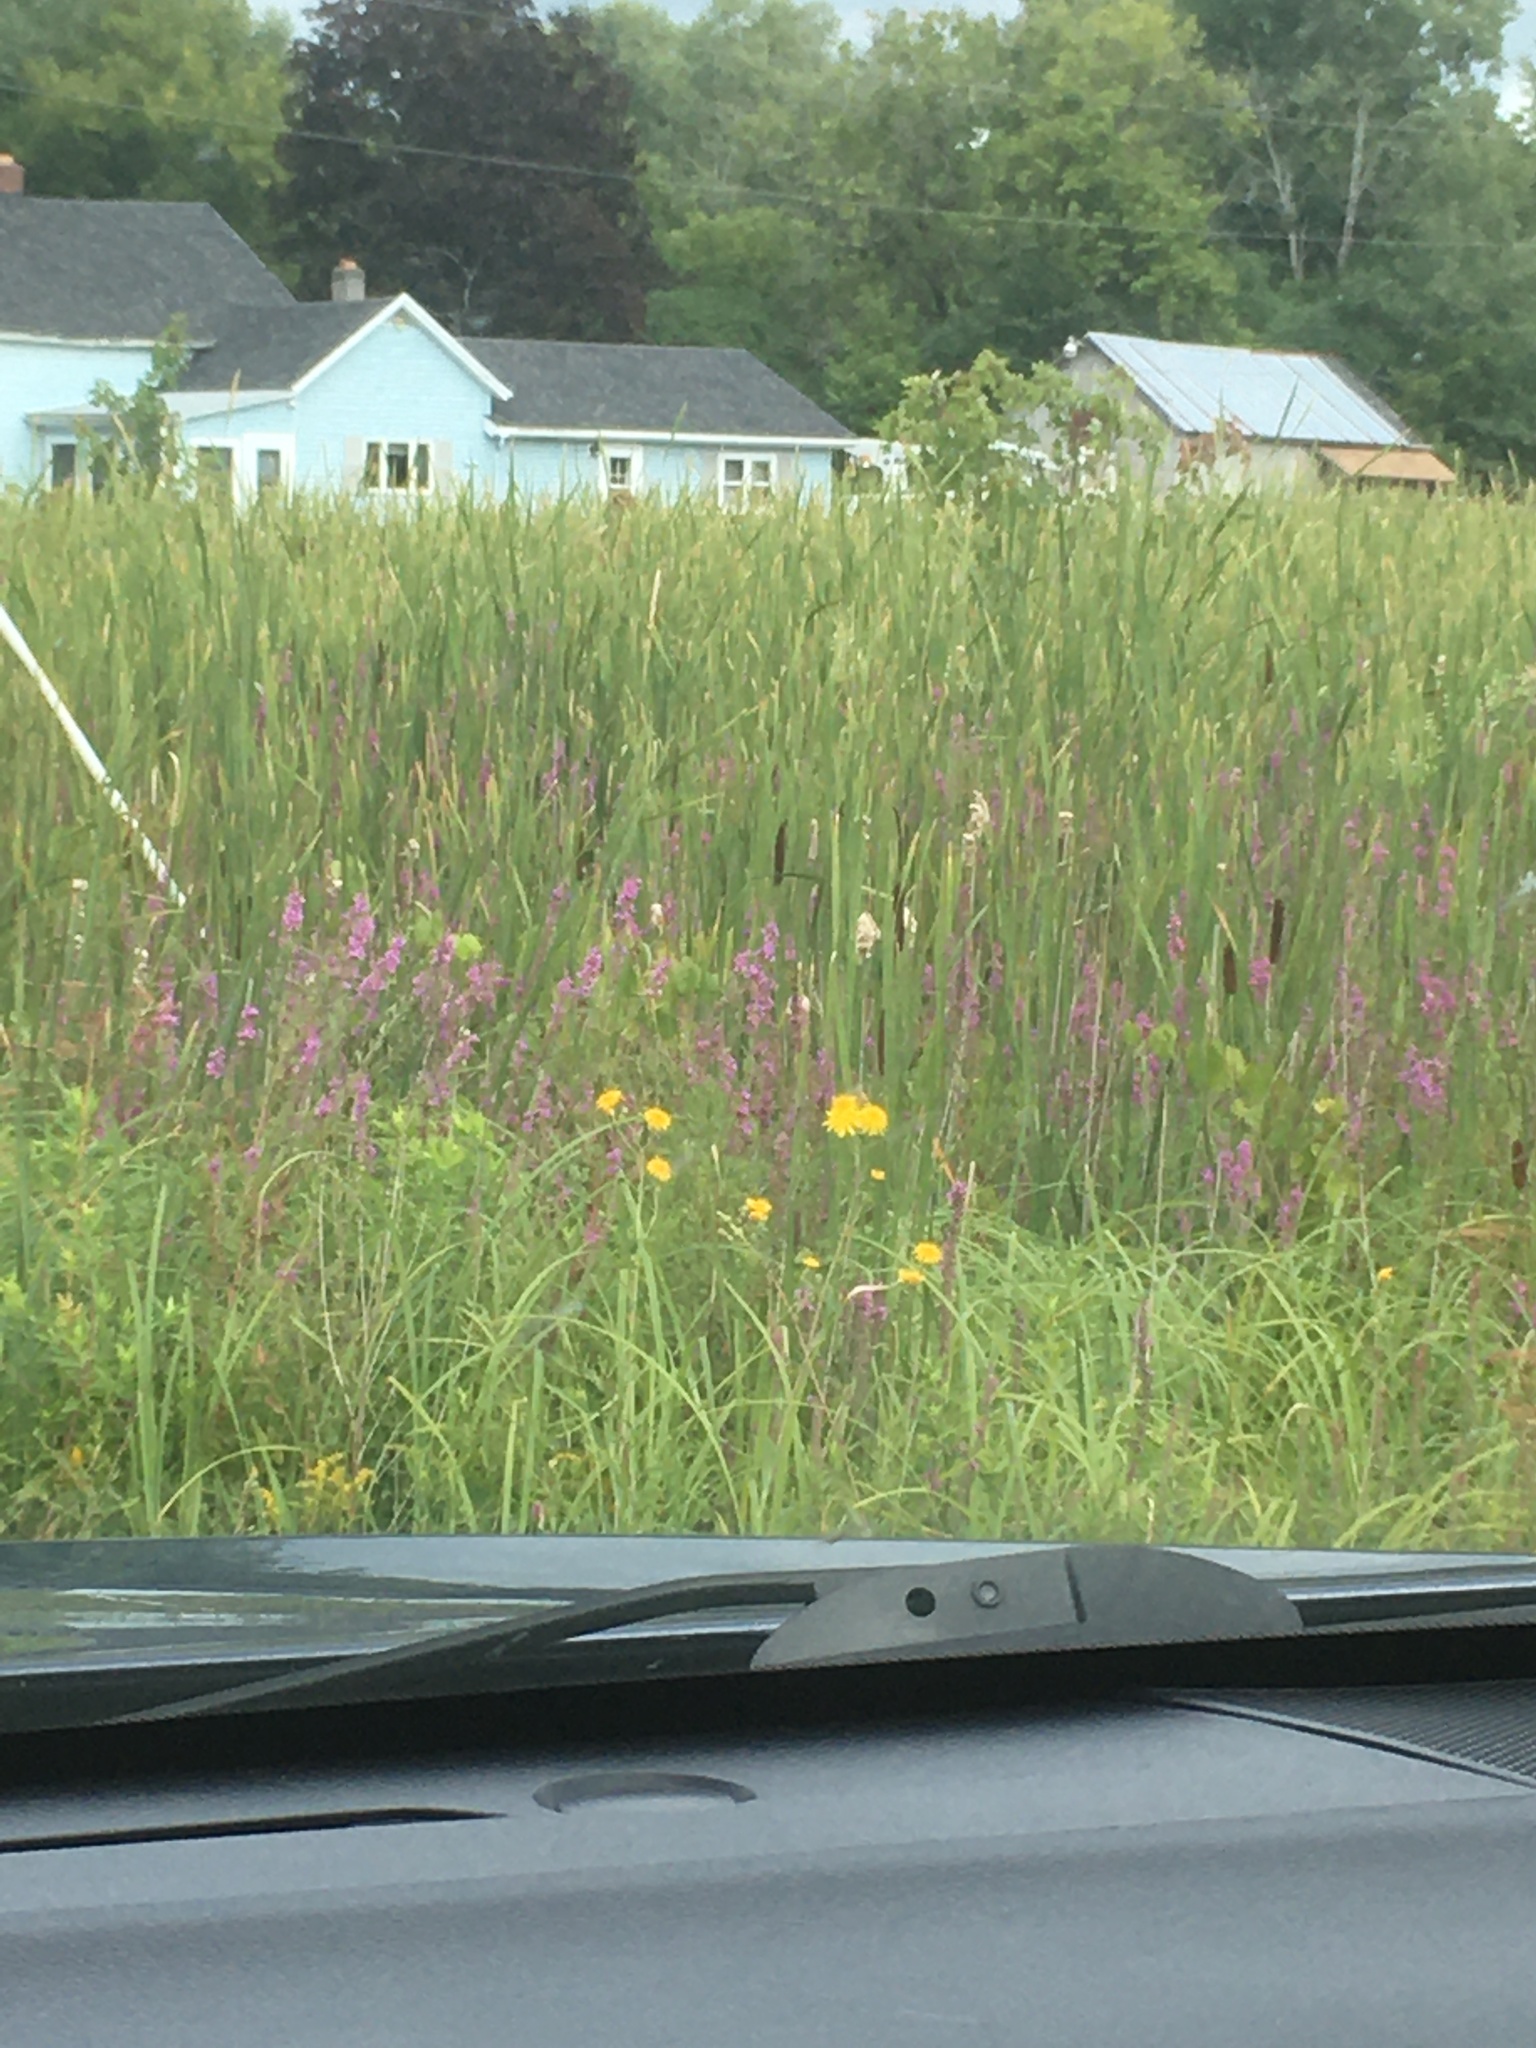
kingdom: Plantae
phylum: Tracheophyta
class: Magnoliopsida
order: Myrtales
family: Lythraceae
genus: Lythrum
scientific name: Lythrum salicaria
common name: Purple loosestrife
